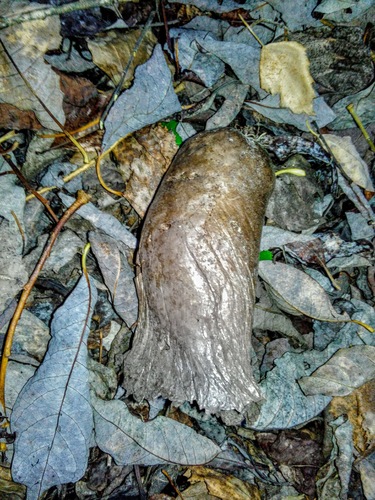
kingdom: Fungi
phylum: Basidiomycota
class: Agaricomycetes
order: Agaricales
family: Lycoperdaceae
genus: Lycoperdon
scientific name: Lycoperdon excipuliforme
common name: Pestle puffball
